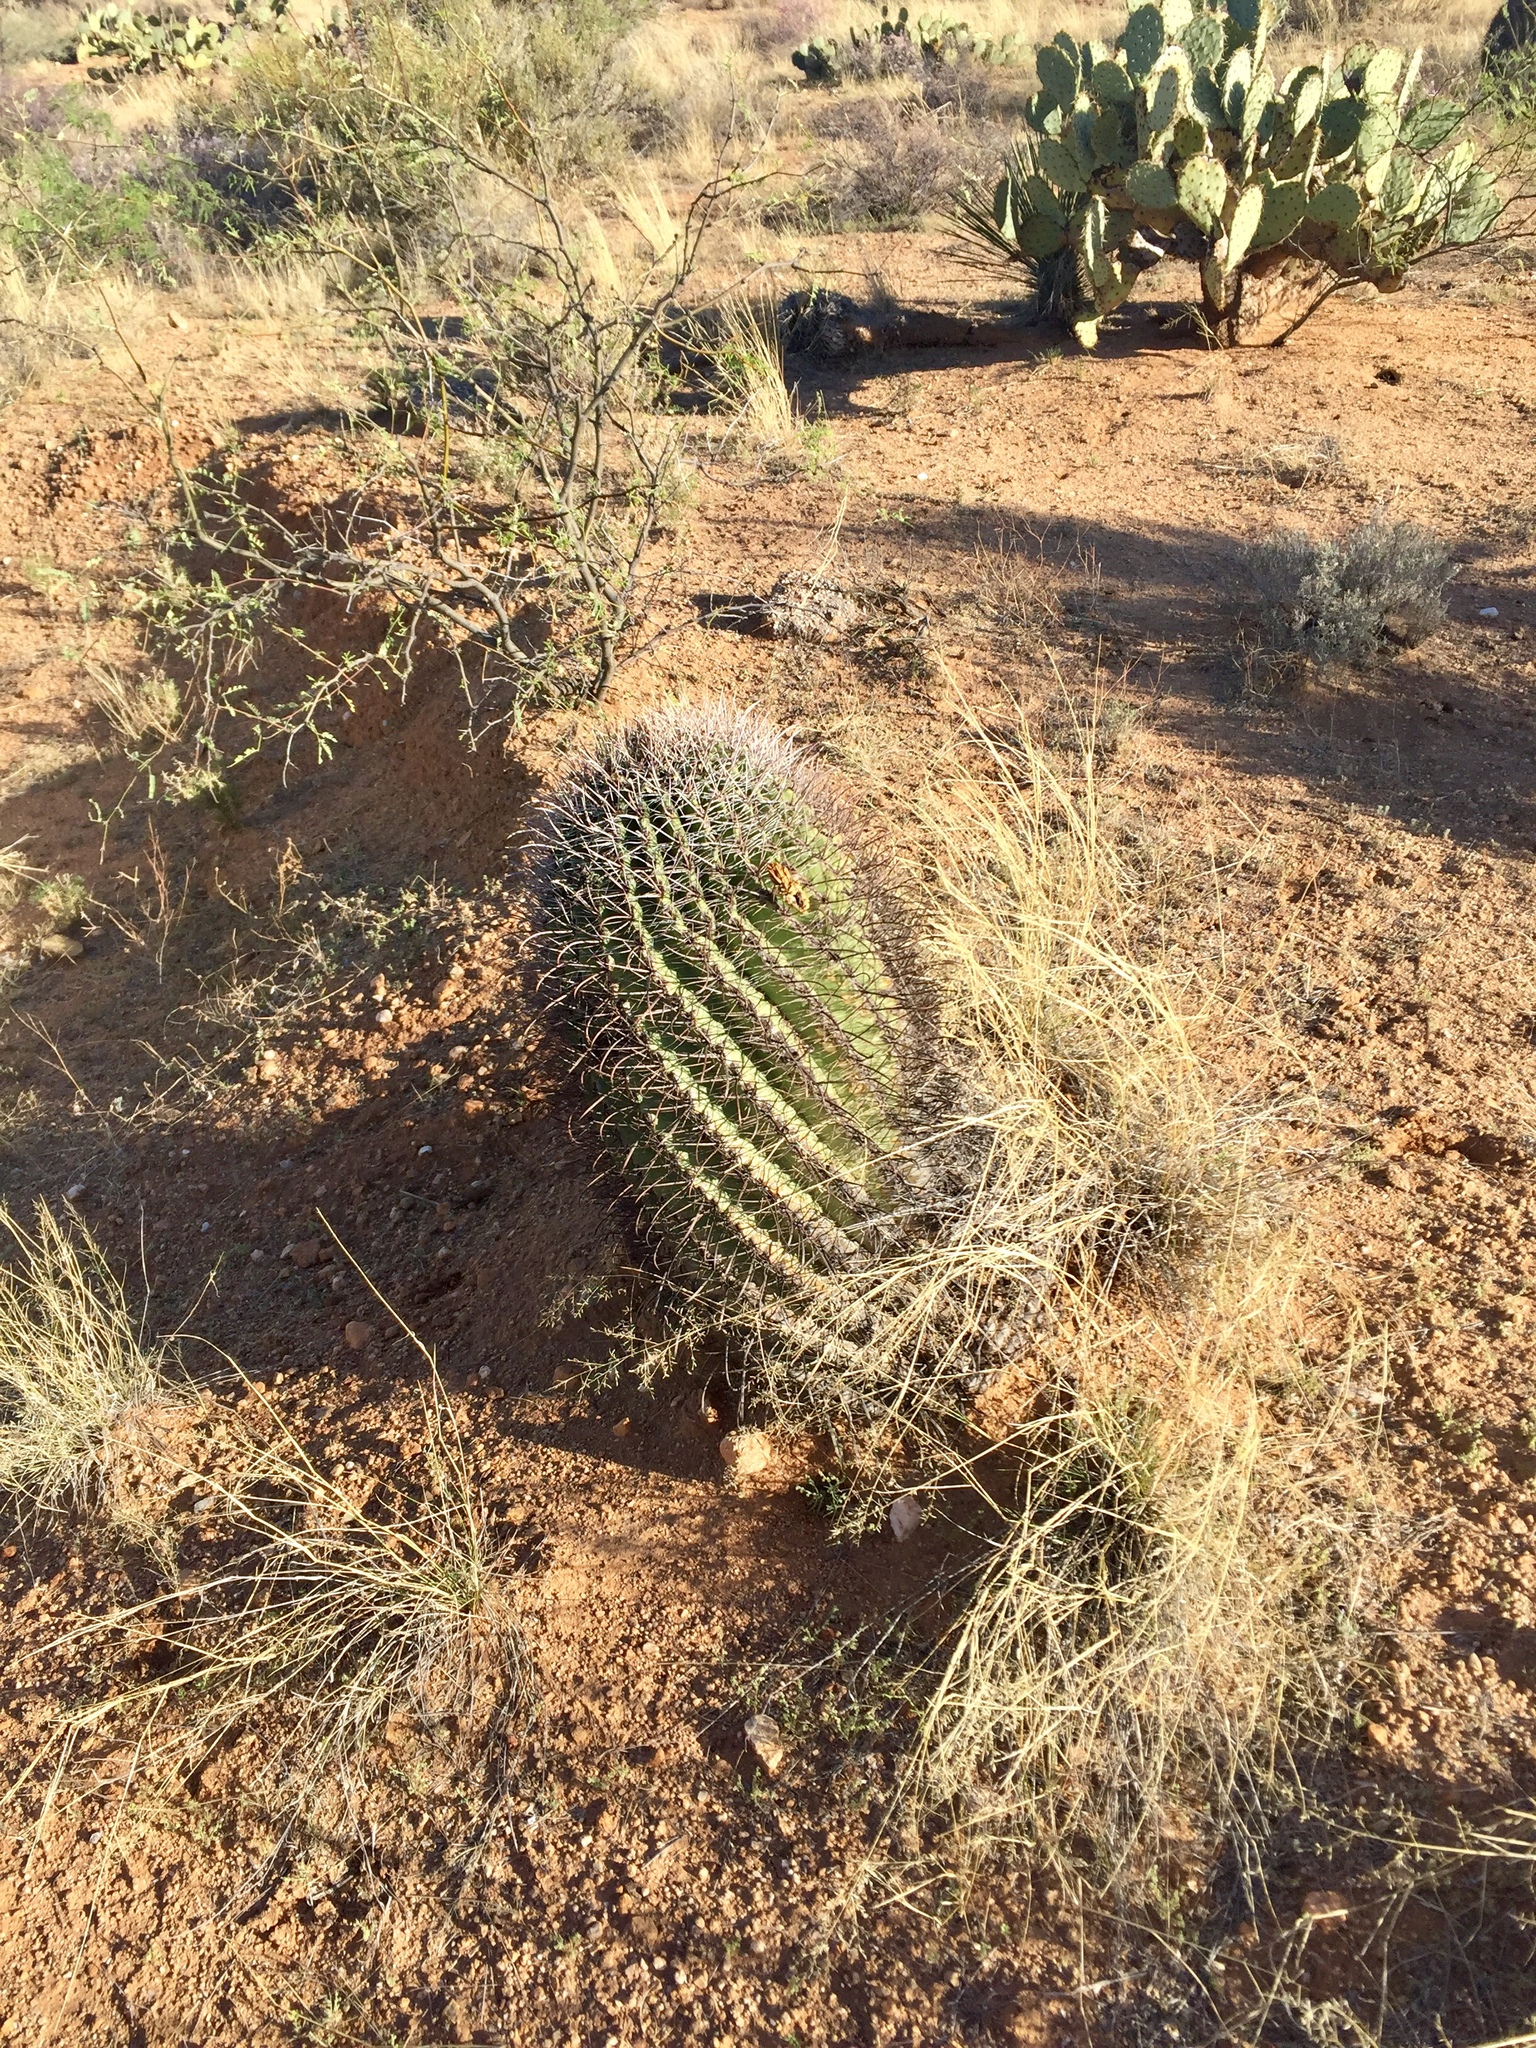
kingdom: Plantae
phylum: Tracheophyta
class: Magnoliopsida
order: Caryophyllales
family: Cactaceae
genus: Ferocactus
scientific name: Ferocactus wislizeni
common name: Candy barrel cactus
